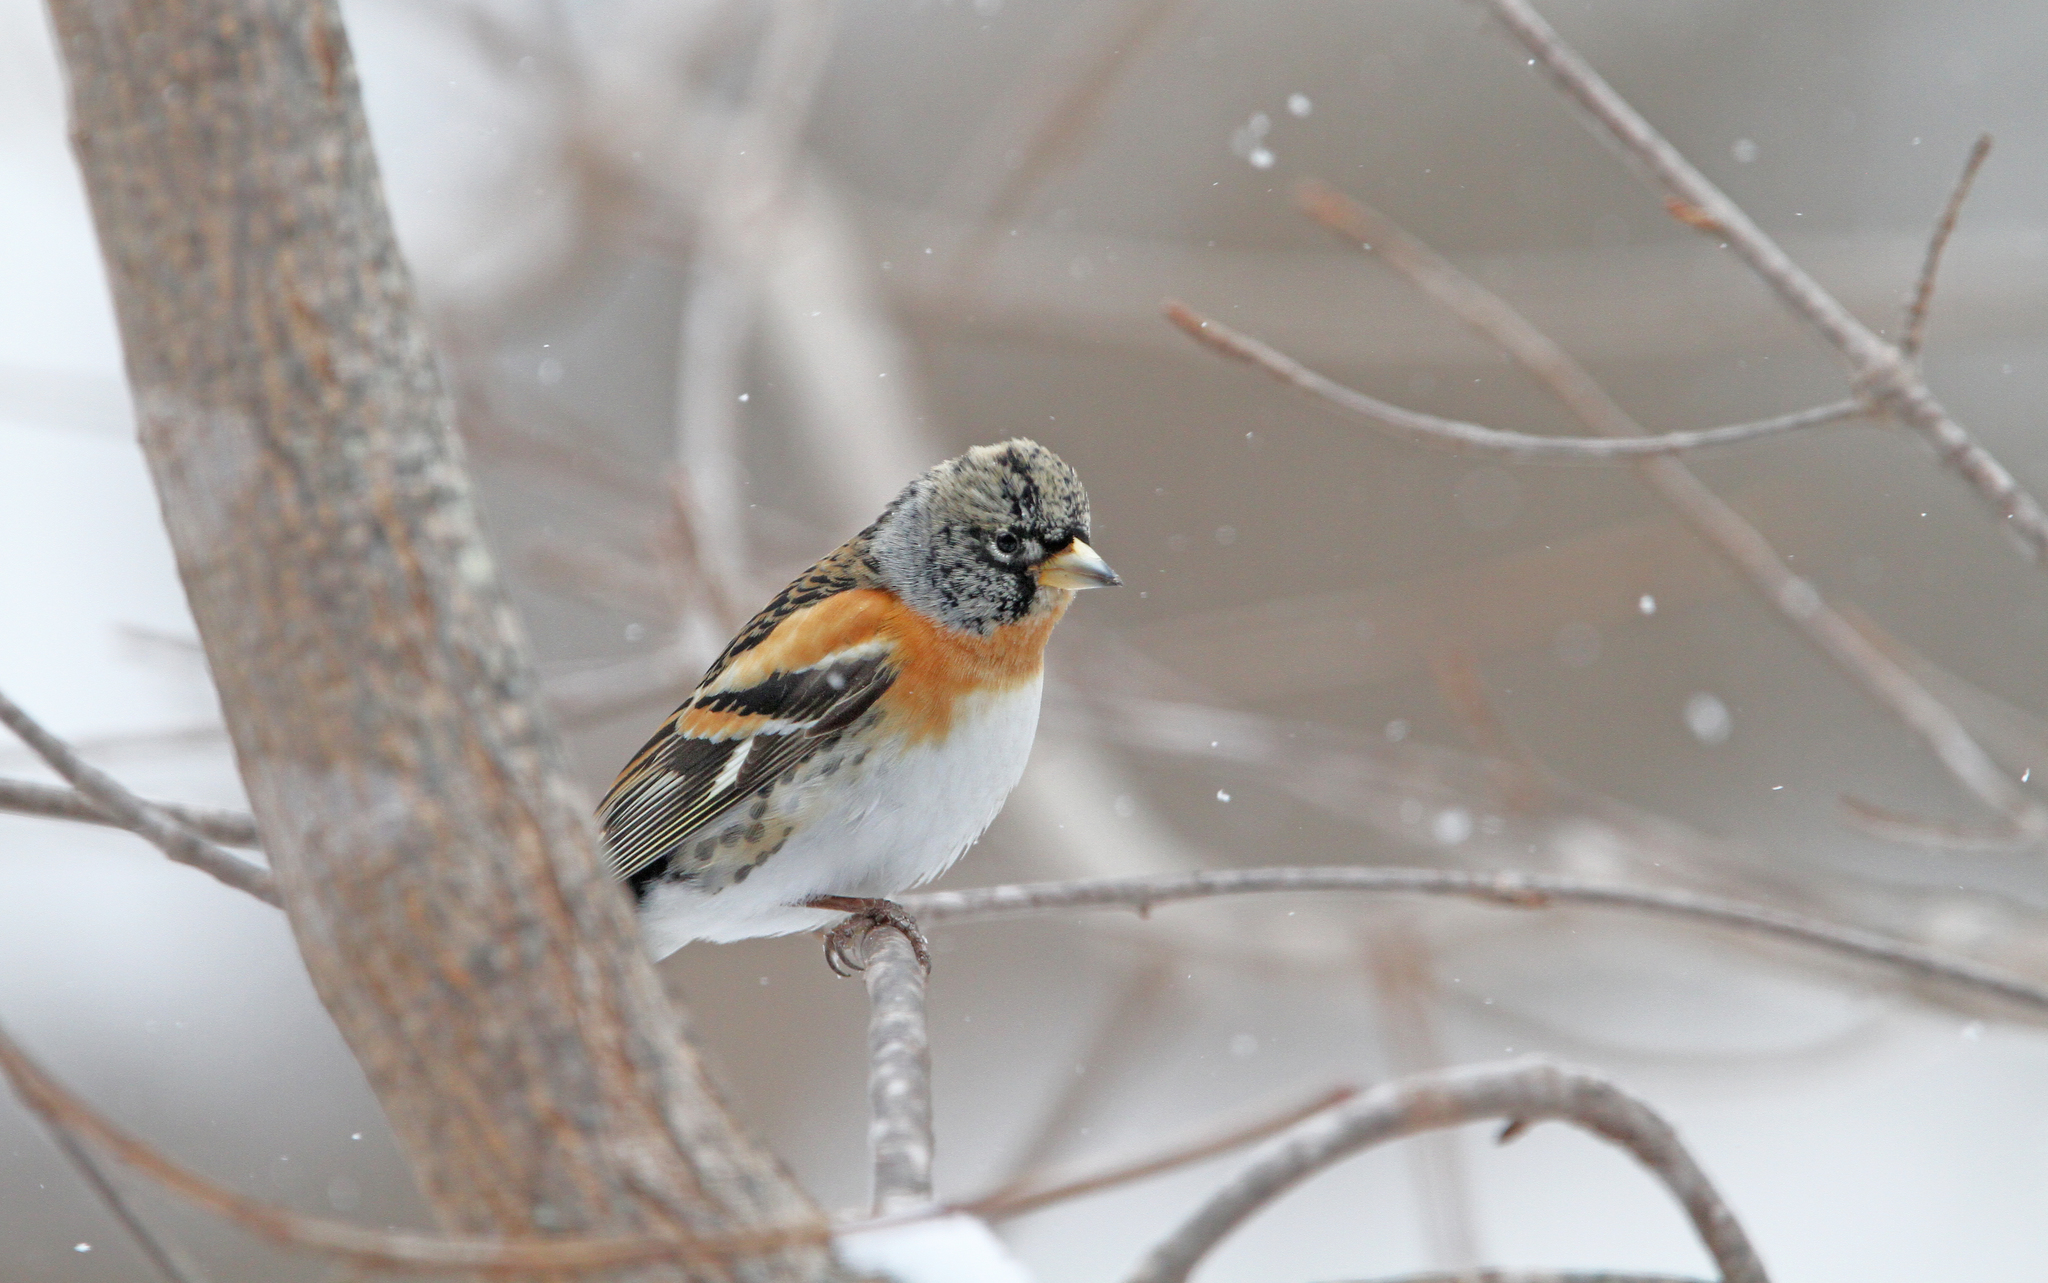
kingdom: Animalia
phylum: Chordata
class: Aves
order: Passeriformes
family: Fringillidae
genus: Fringilla
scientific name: Fringilla montifringilla
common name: Brambling
